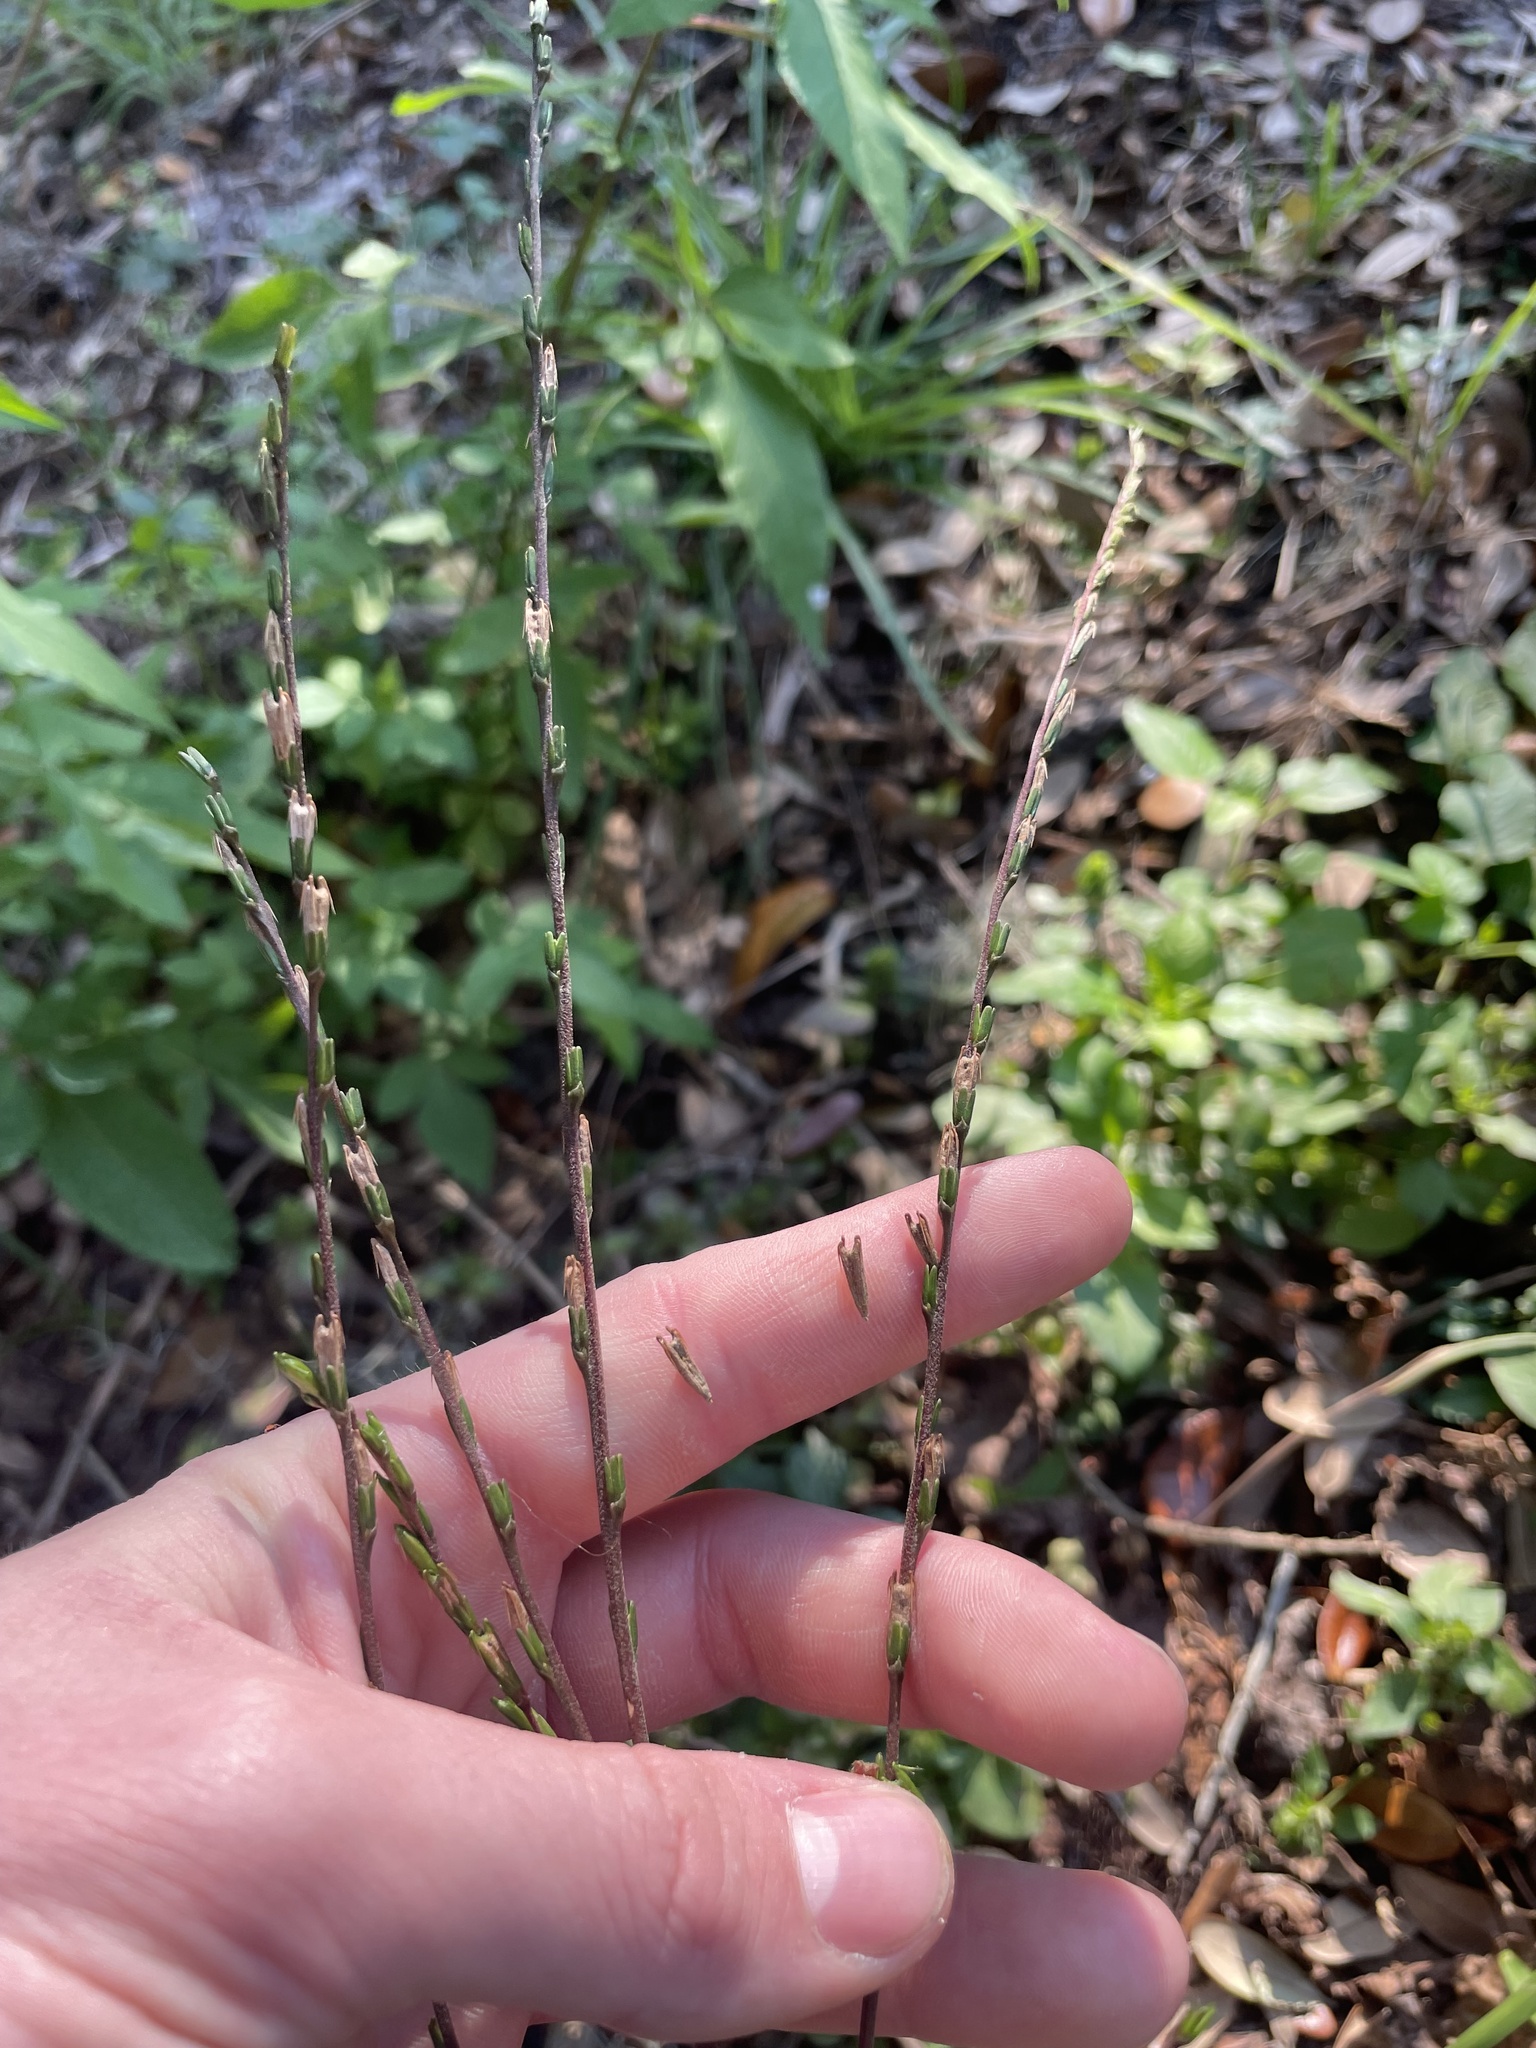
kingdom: Plantae
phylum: Tracheophyta
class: Magnoliopsida
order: Caryophyllales
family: Phytolaccaceae
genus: Petiveria
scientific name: Petiveria alliacea
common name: Garlicweed
